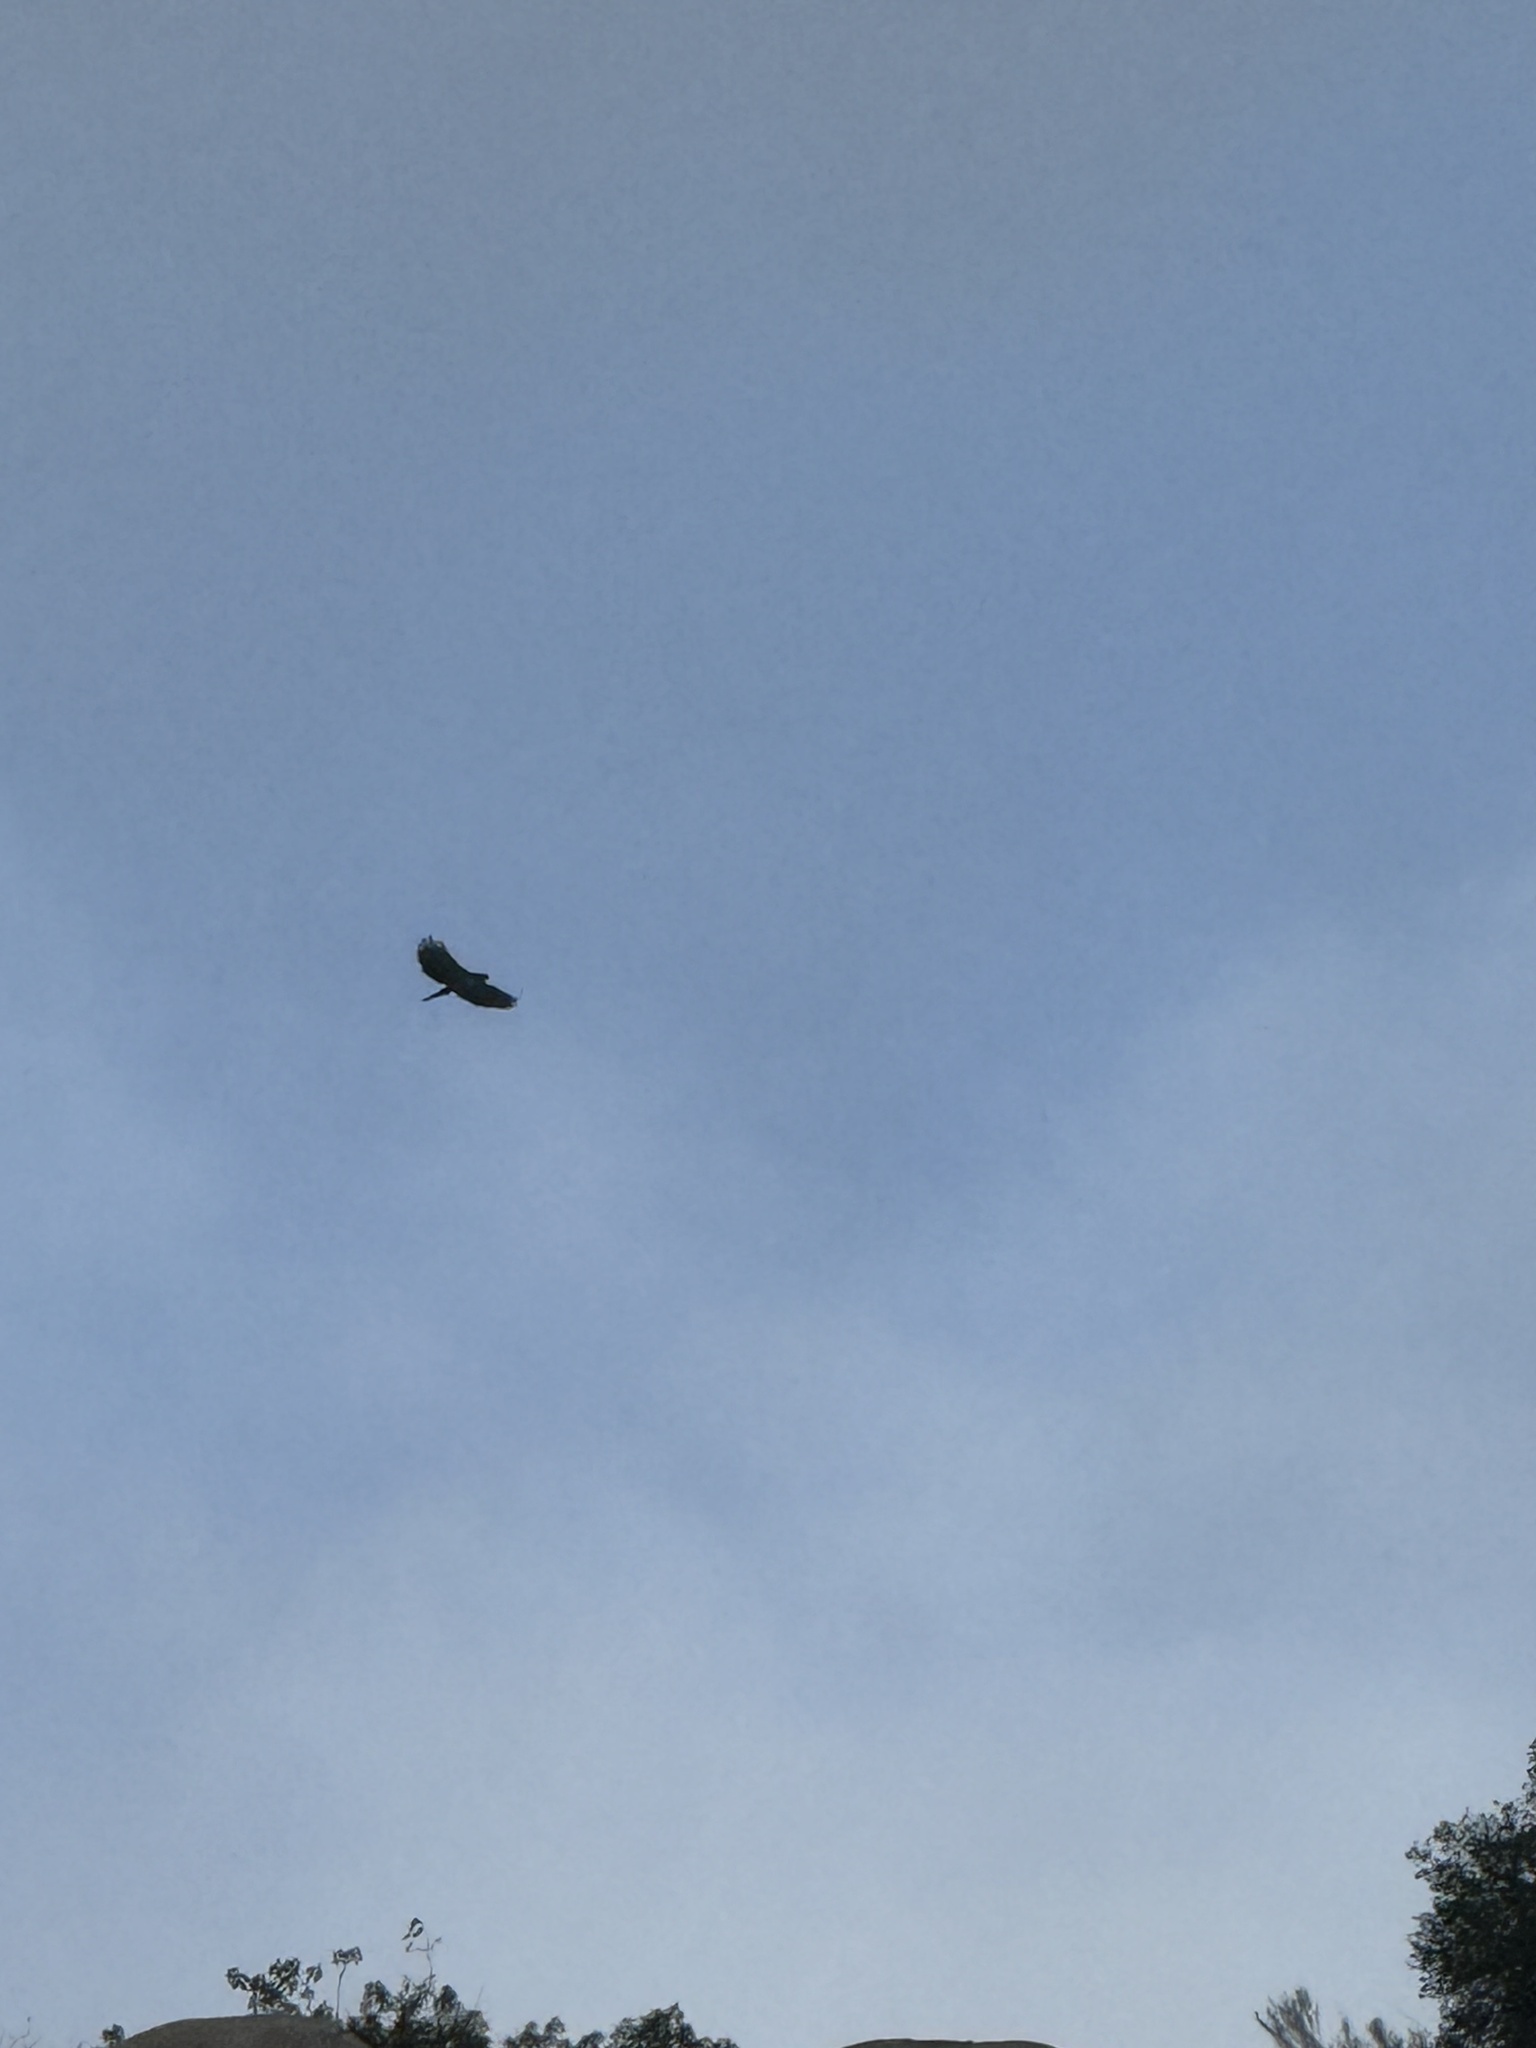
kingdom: Animalia
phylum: Chordata
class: Aves
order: Accipitriformes
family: Accipitridae
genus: Buteo
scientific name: Buteo jamaicensis
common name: Red-tailed hawk
